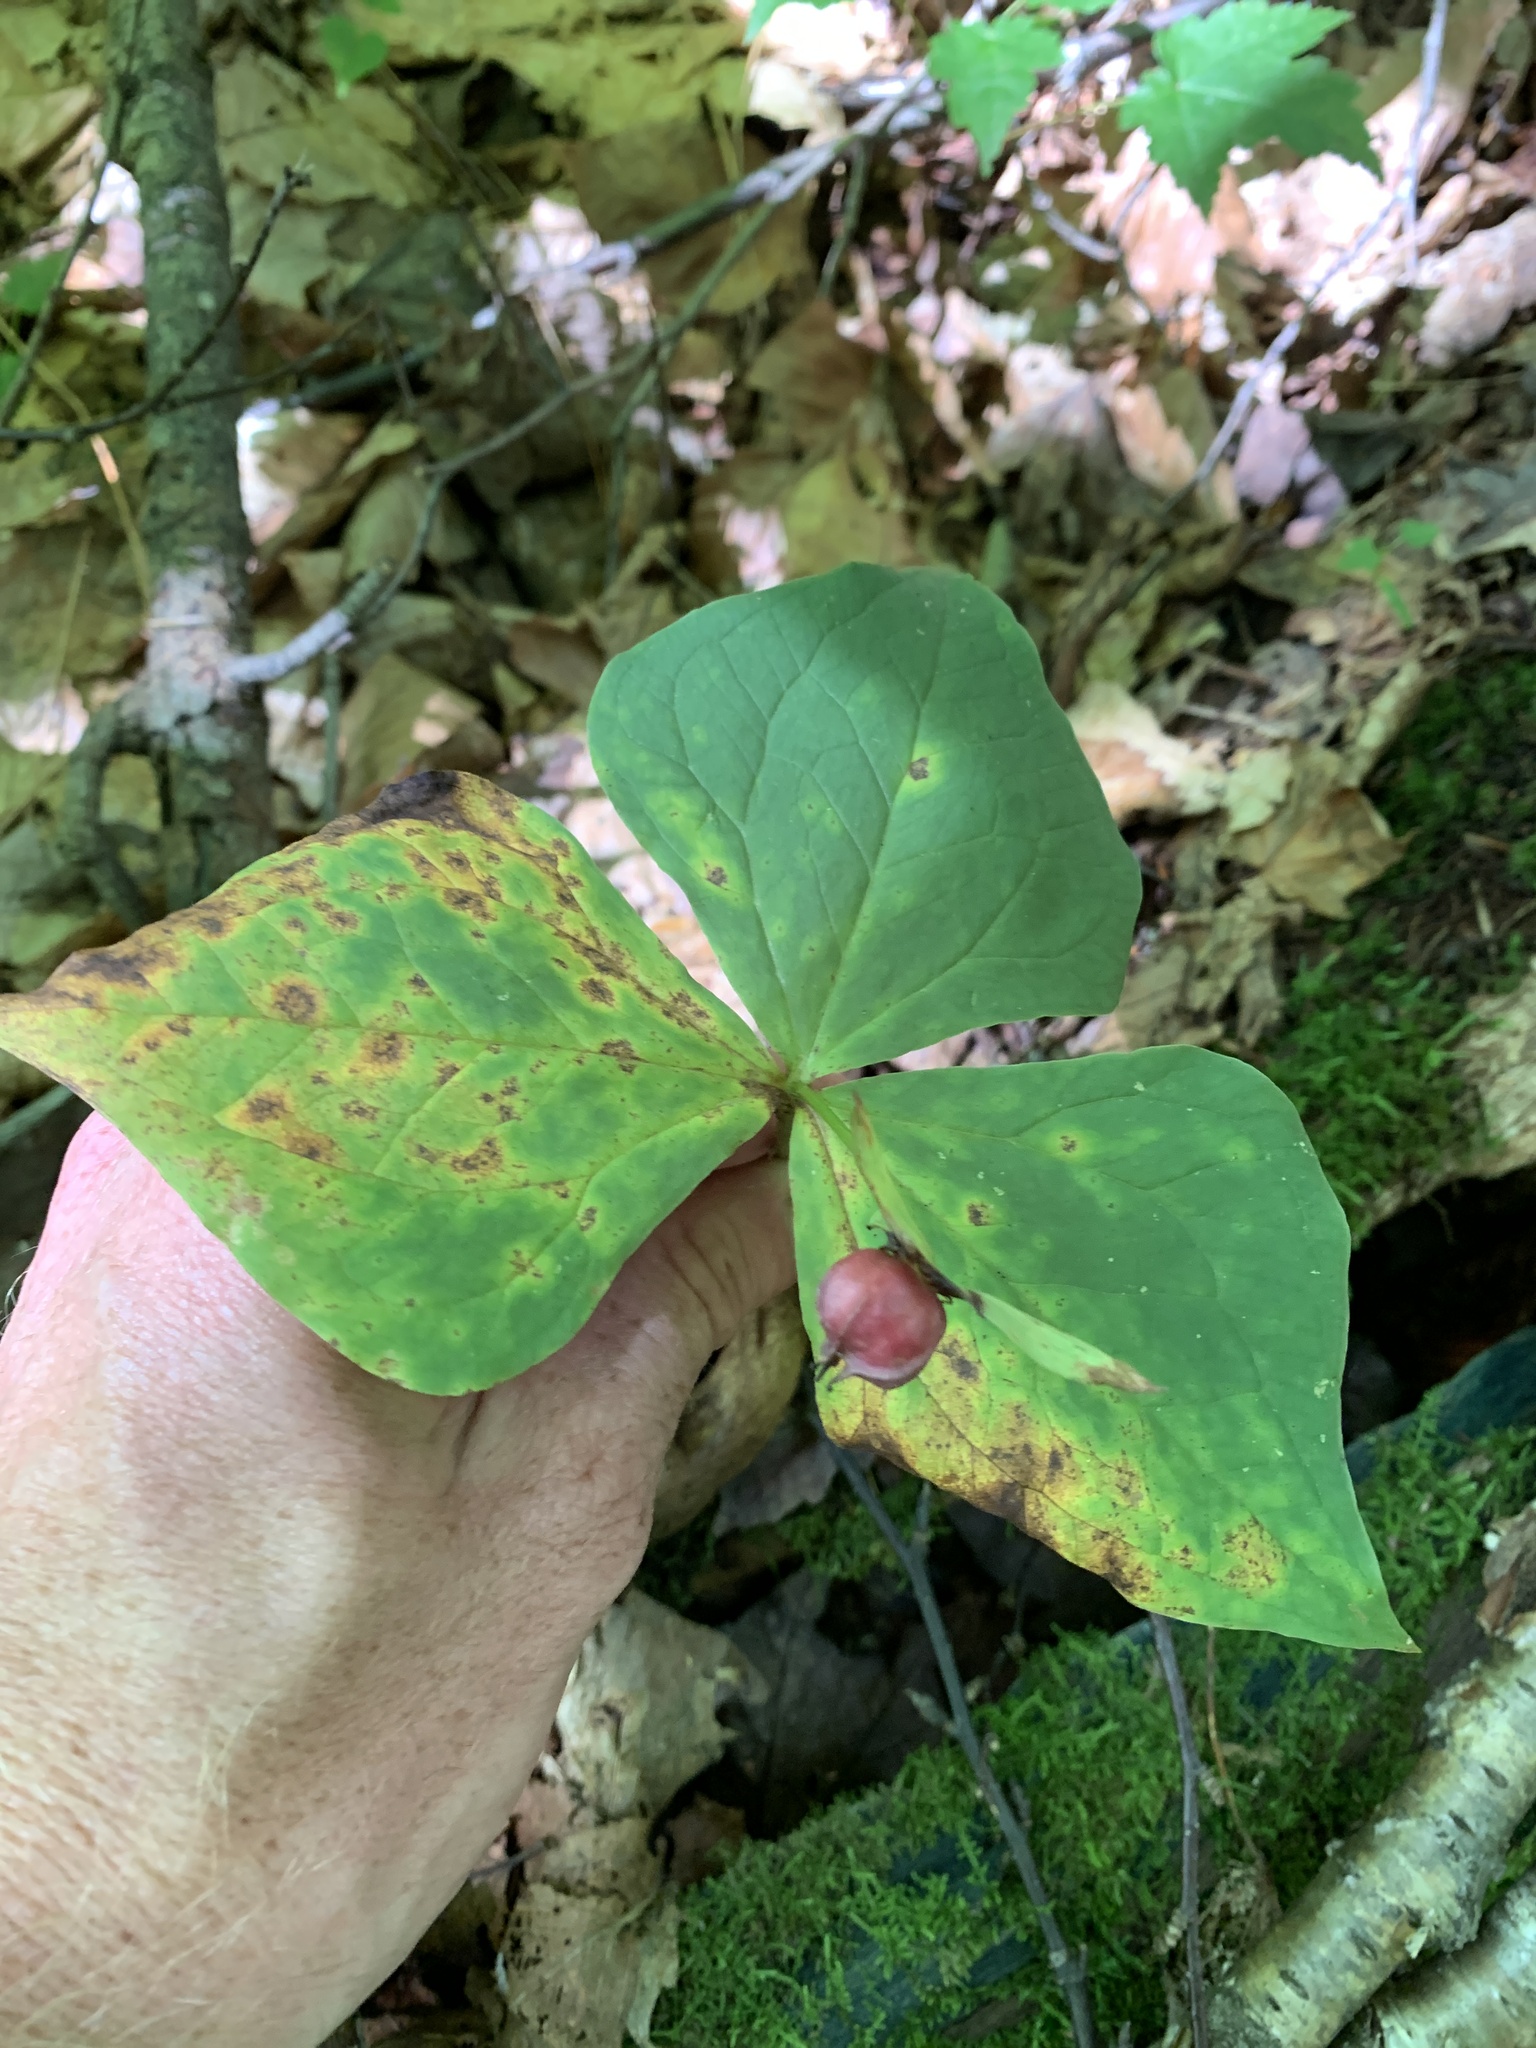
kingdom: Plantae
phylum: Tracheophyta
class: Liliopsida
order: Liliales
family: Melanthiaceae
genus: Trillium
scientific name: Trillium erectum
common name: Purple trillium
